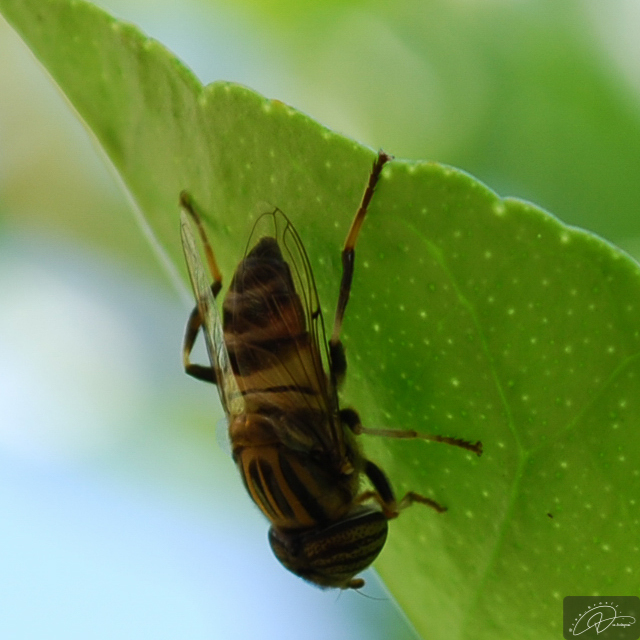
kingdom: Animalia
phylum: Arthropoda
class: Insecta
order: Diptera
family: Syrphidae
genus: Eristalinus
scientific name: Eristalinus taeniops
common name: Syrphid fly
